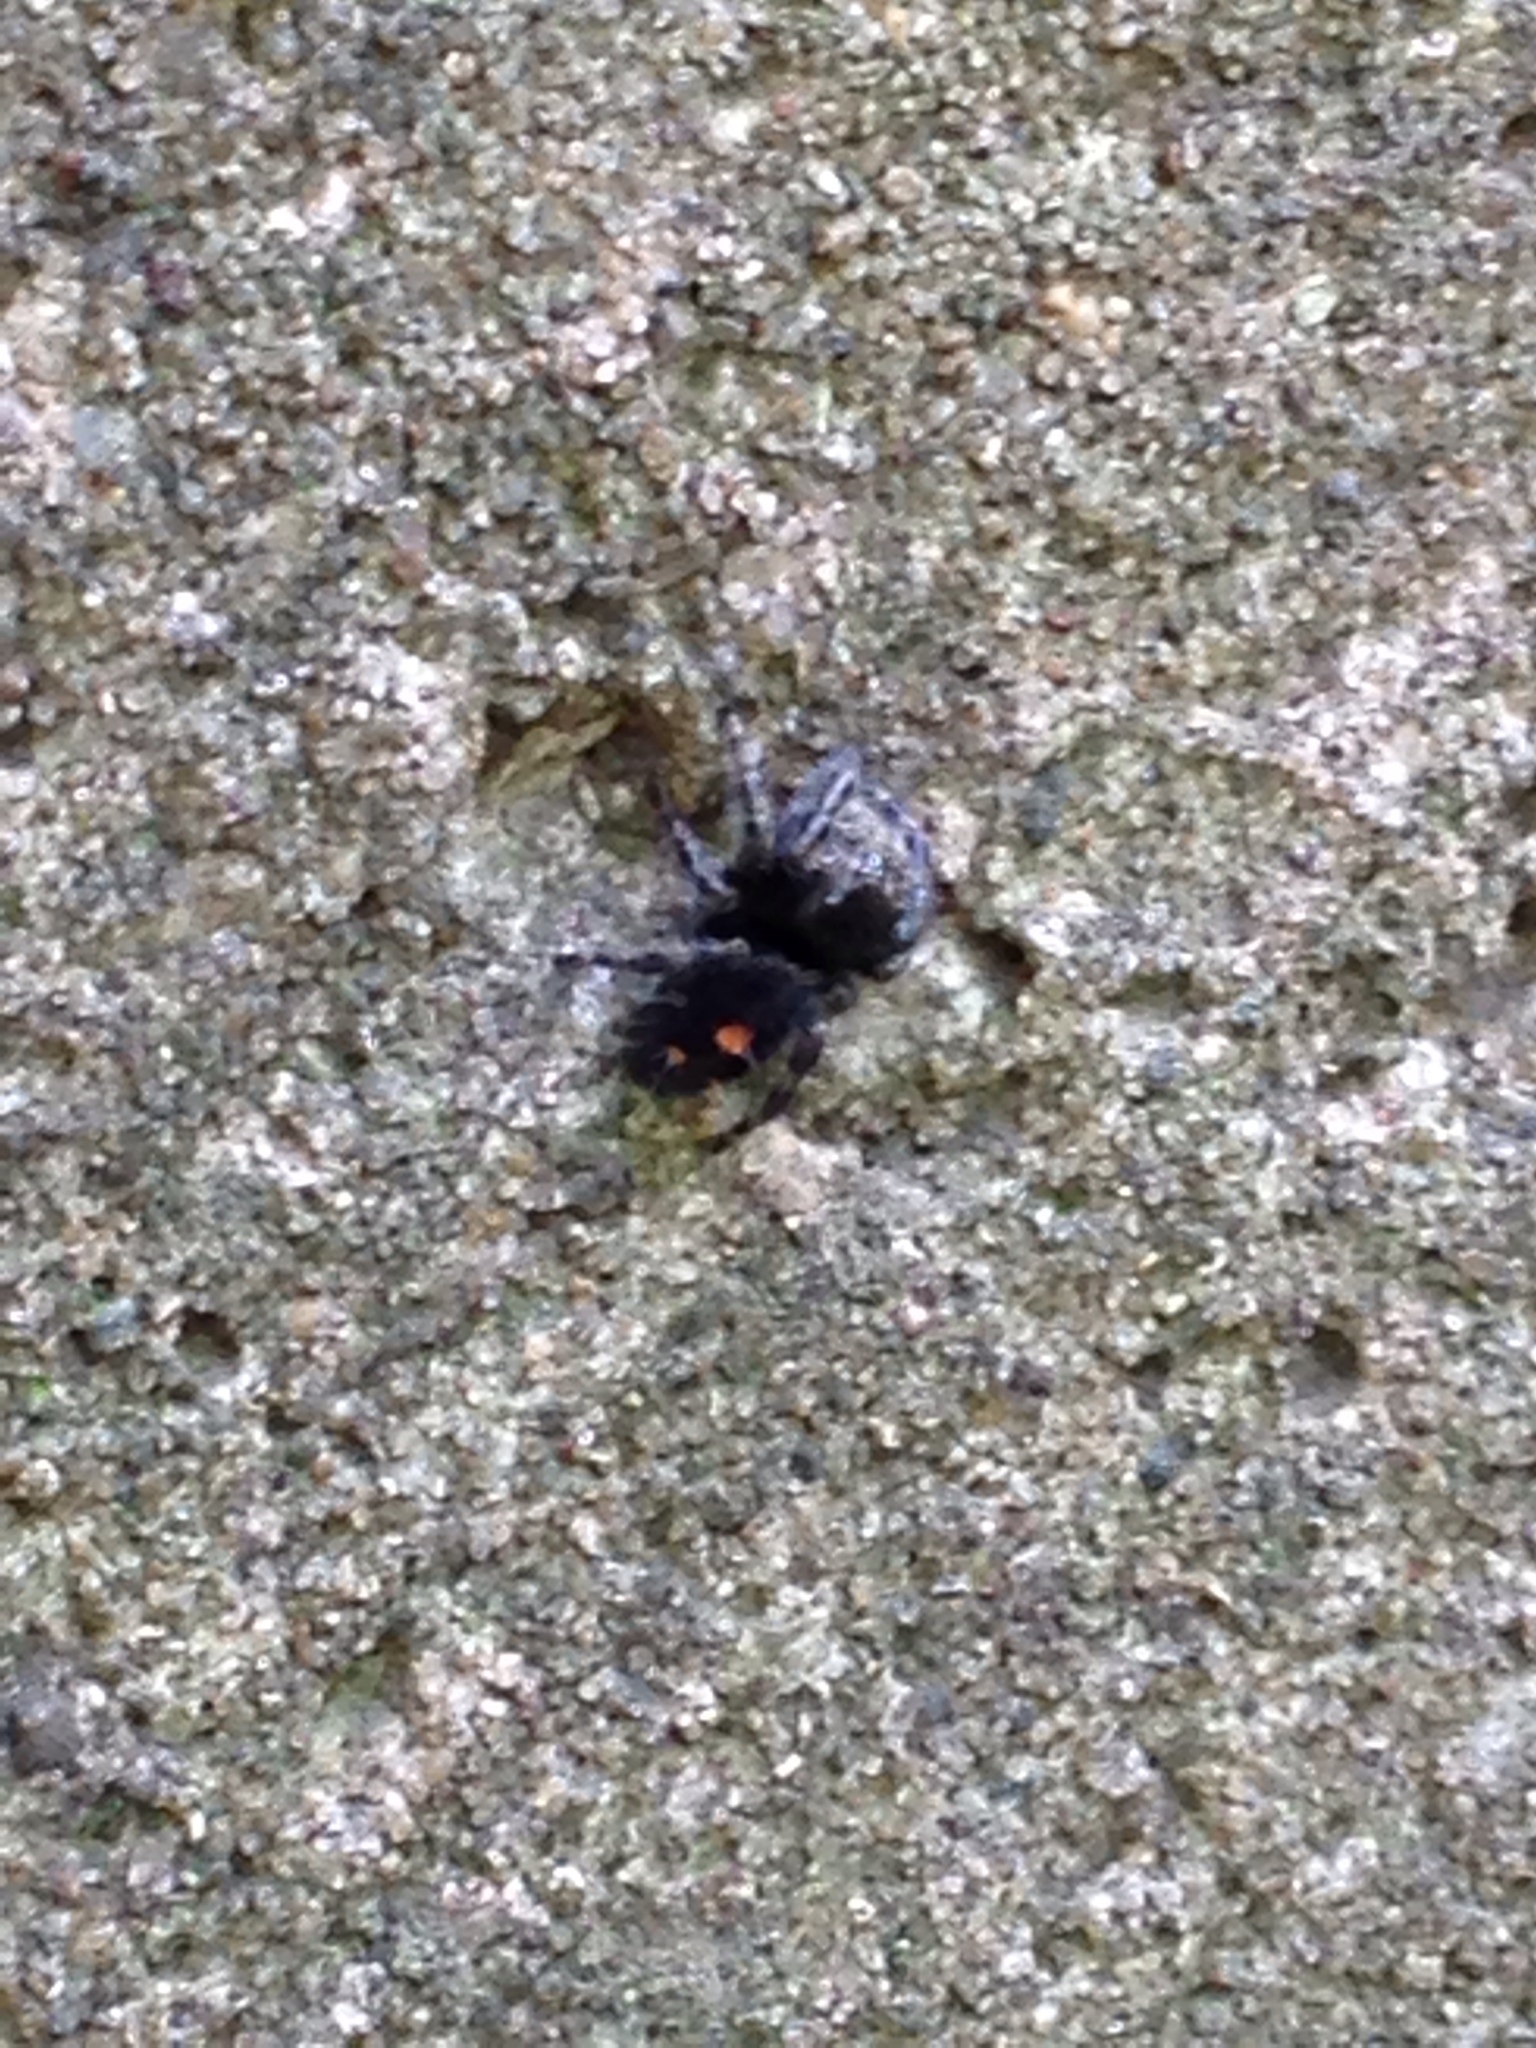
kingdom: Animalia
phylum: Arthropoda
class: Arachnida
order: Araneae
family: Salticidae
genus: Phidippus
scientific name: Phidippus audax
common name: Bold jumper
